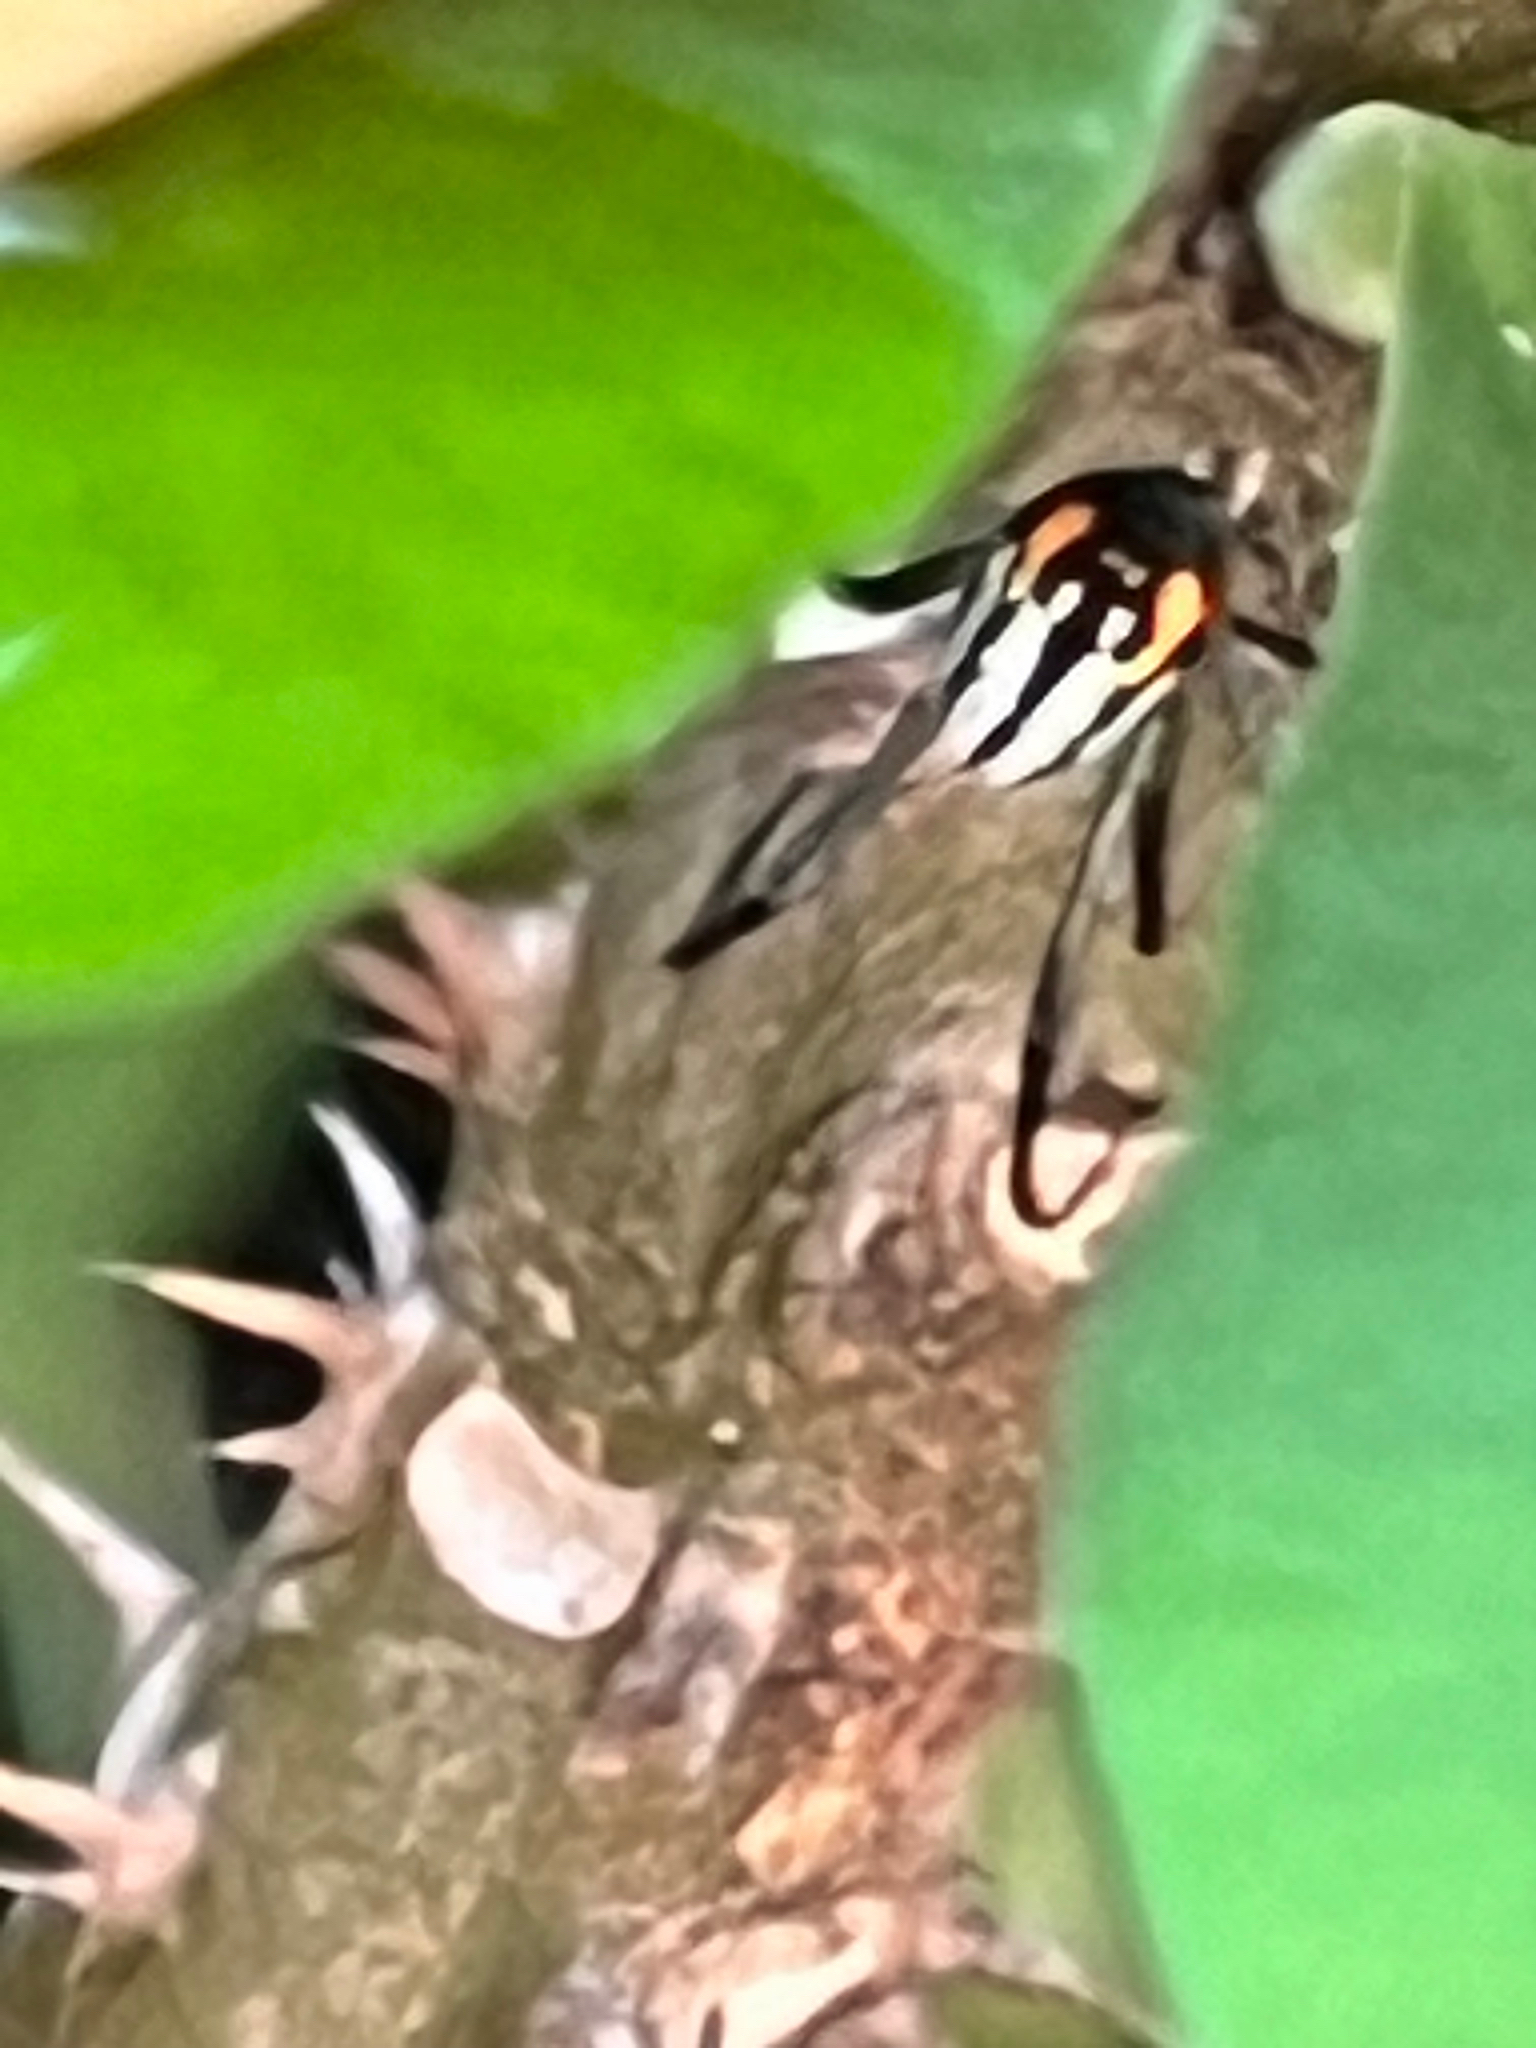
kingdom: Animalia
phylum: Arthropoda
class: Arachnida
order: Araneae
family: Tetragnathidae
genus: Leucauge
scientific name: Leucauge argyrobapta
